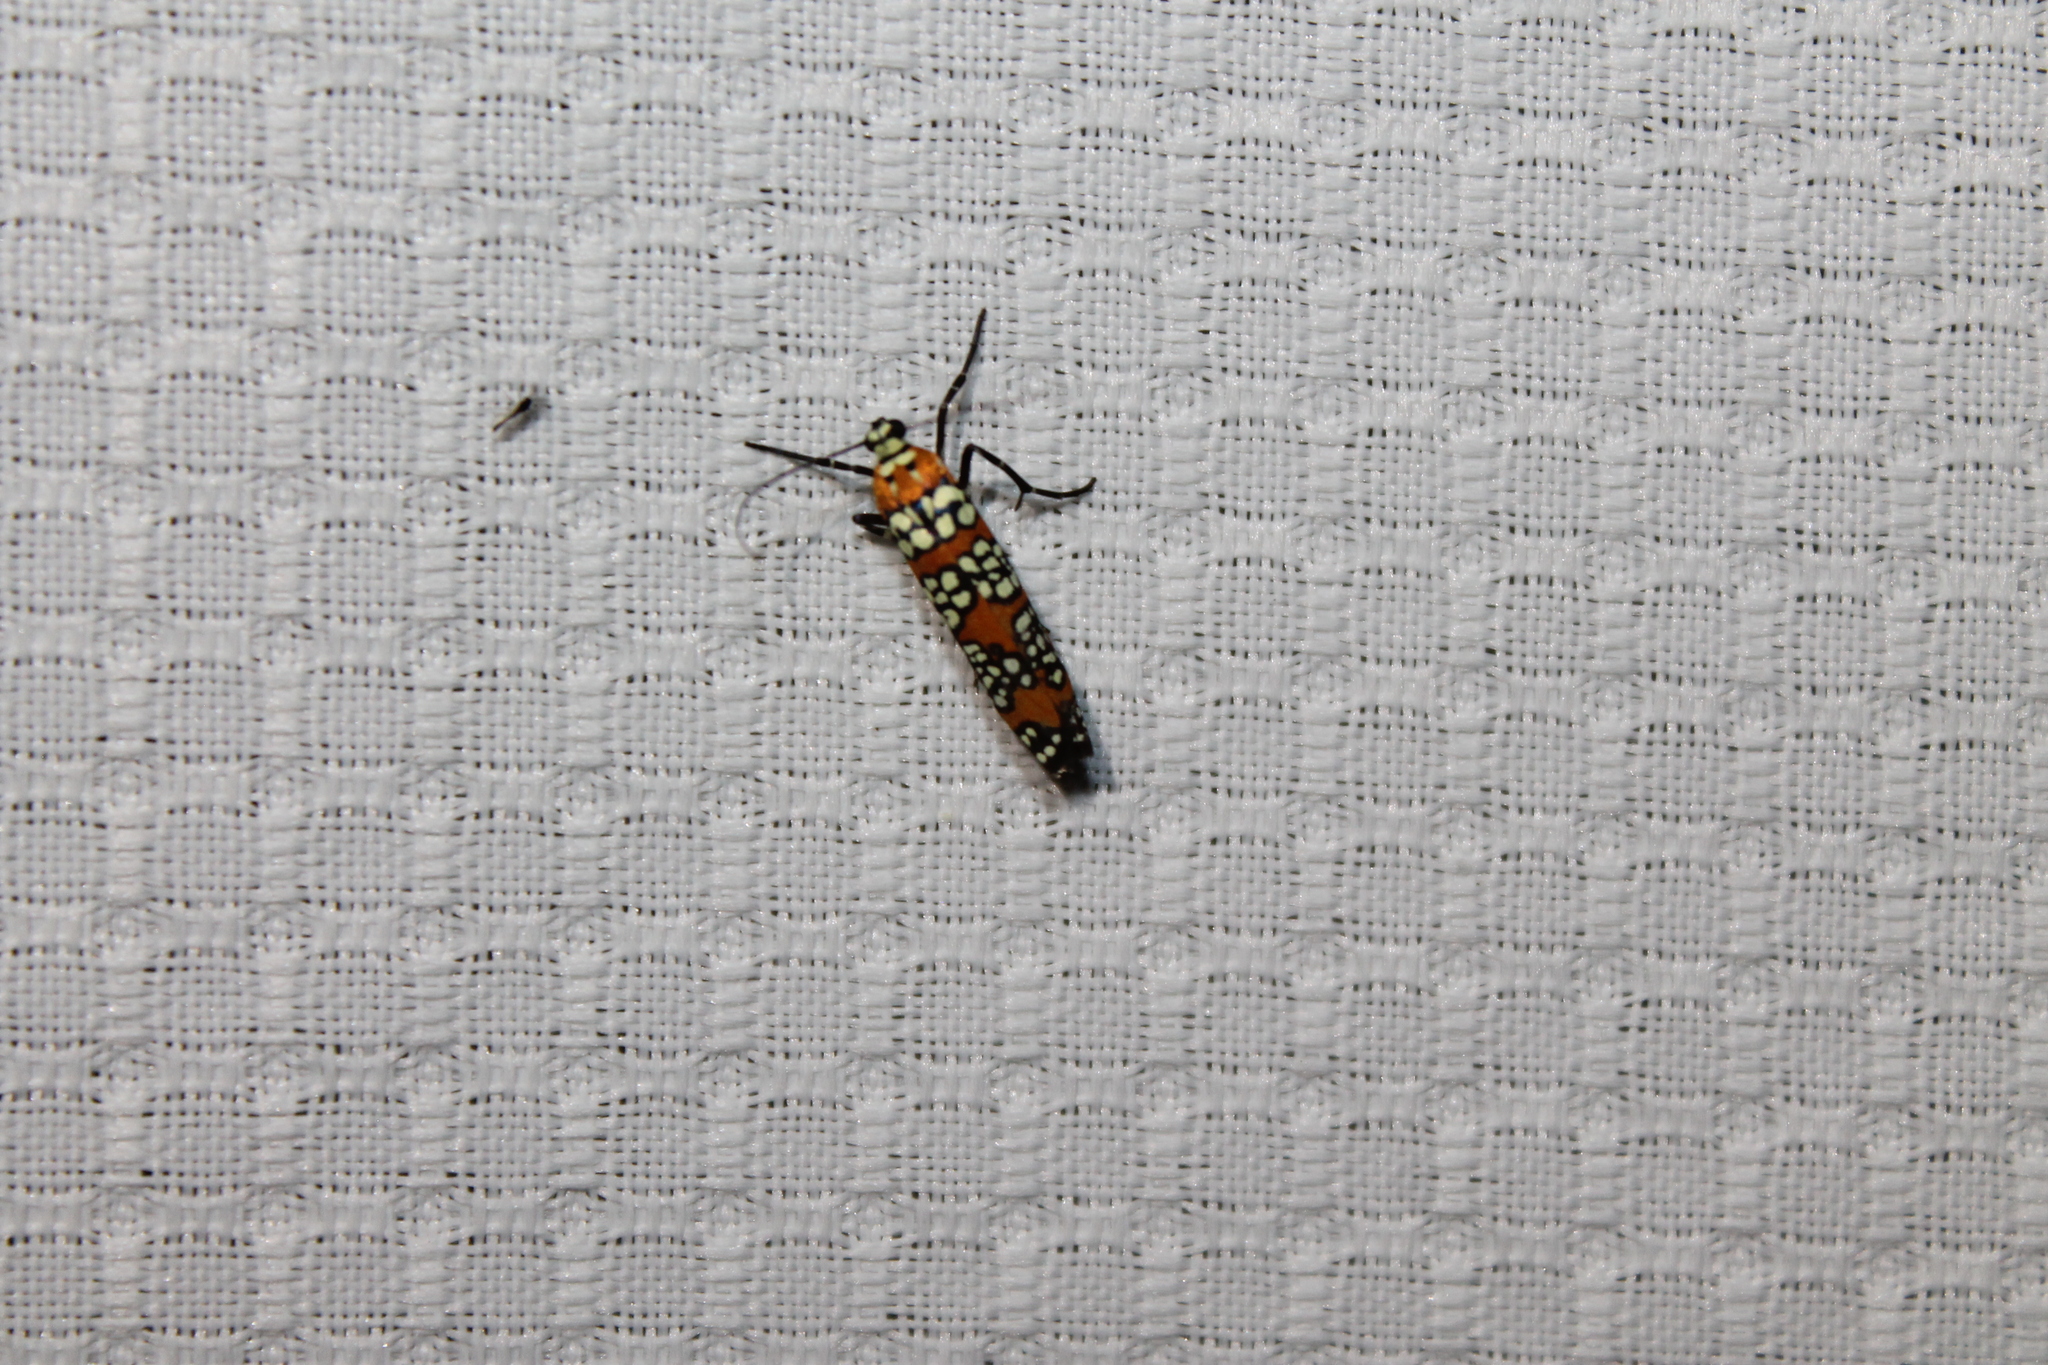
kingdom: Animalia
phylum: Arthropoda
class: Insecta
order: Lepidoptera
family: Attevidae
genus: Atteva
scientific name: Atteva punctella
